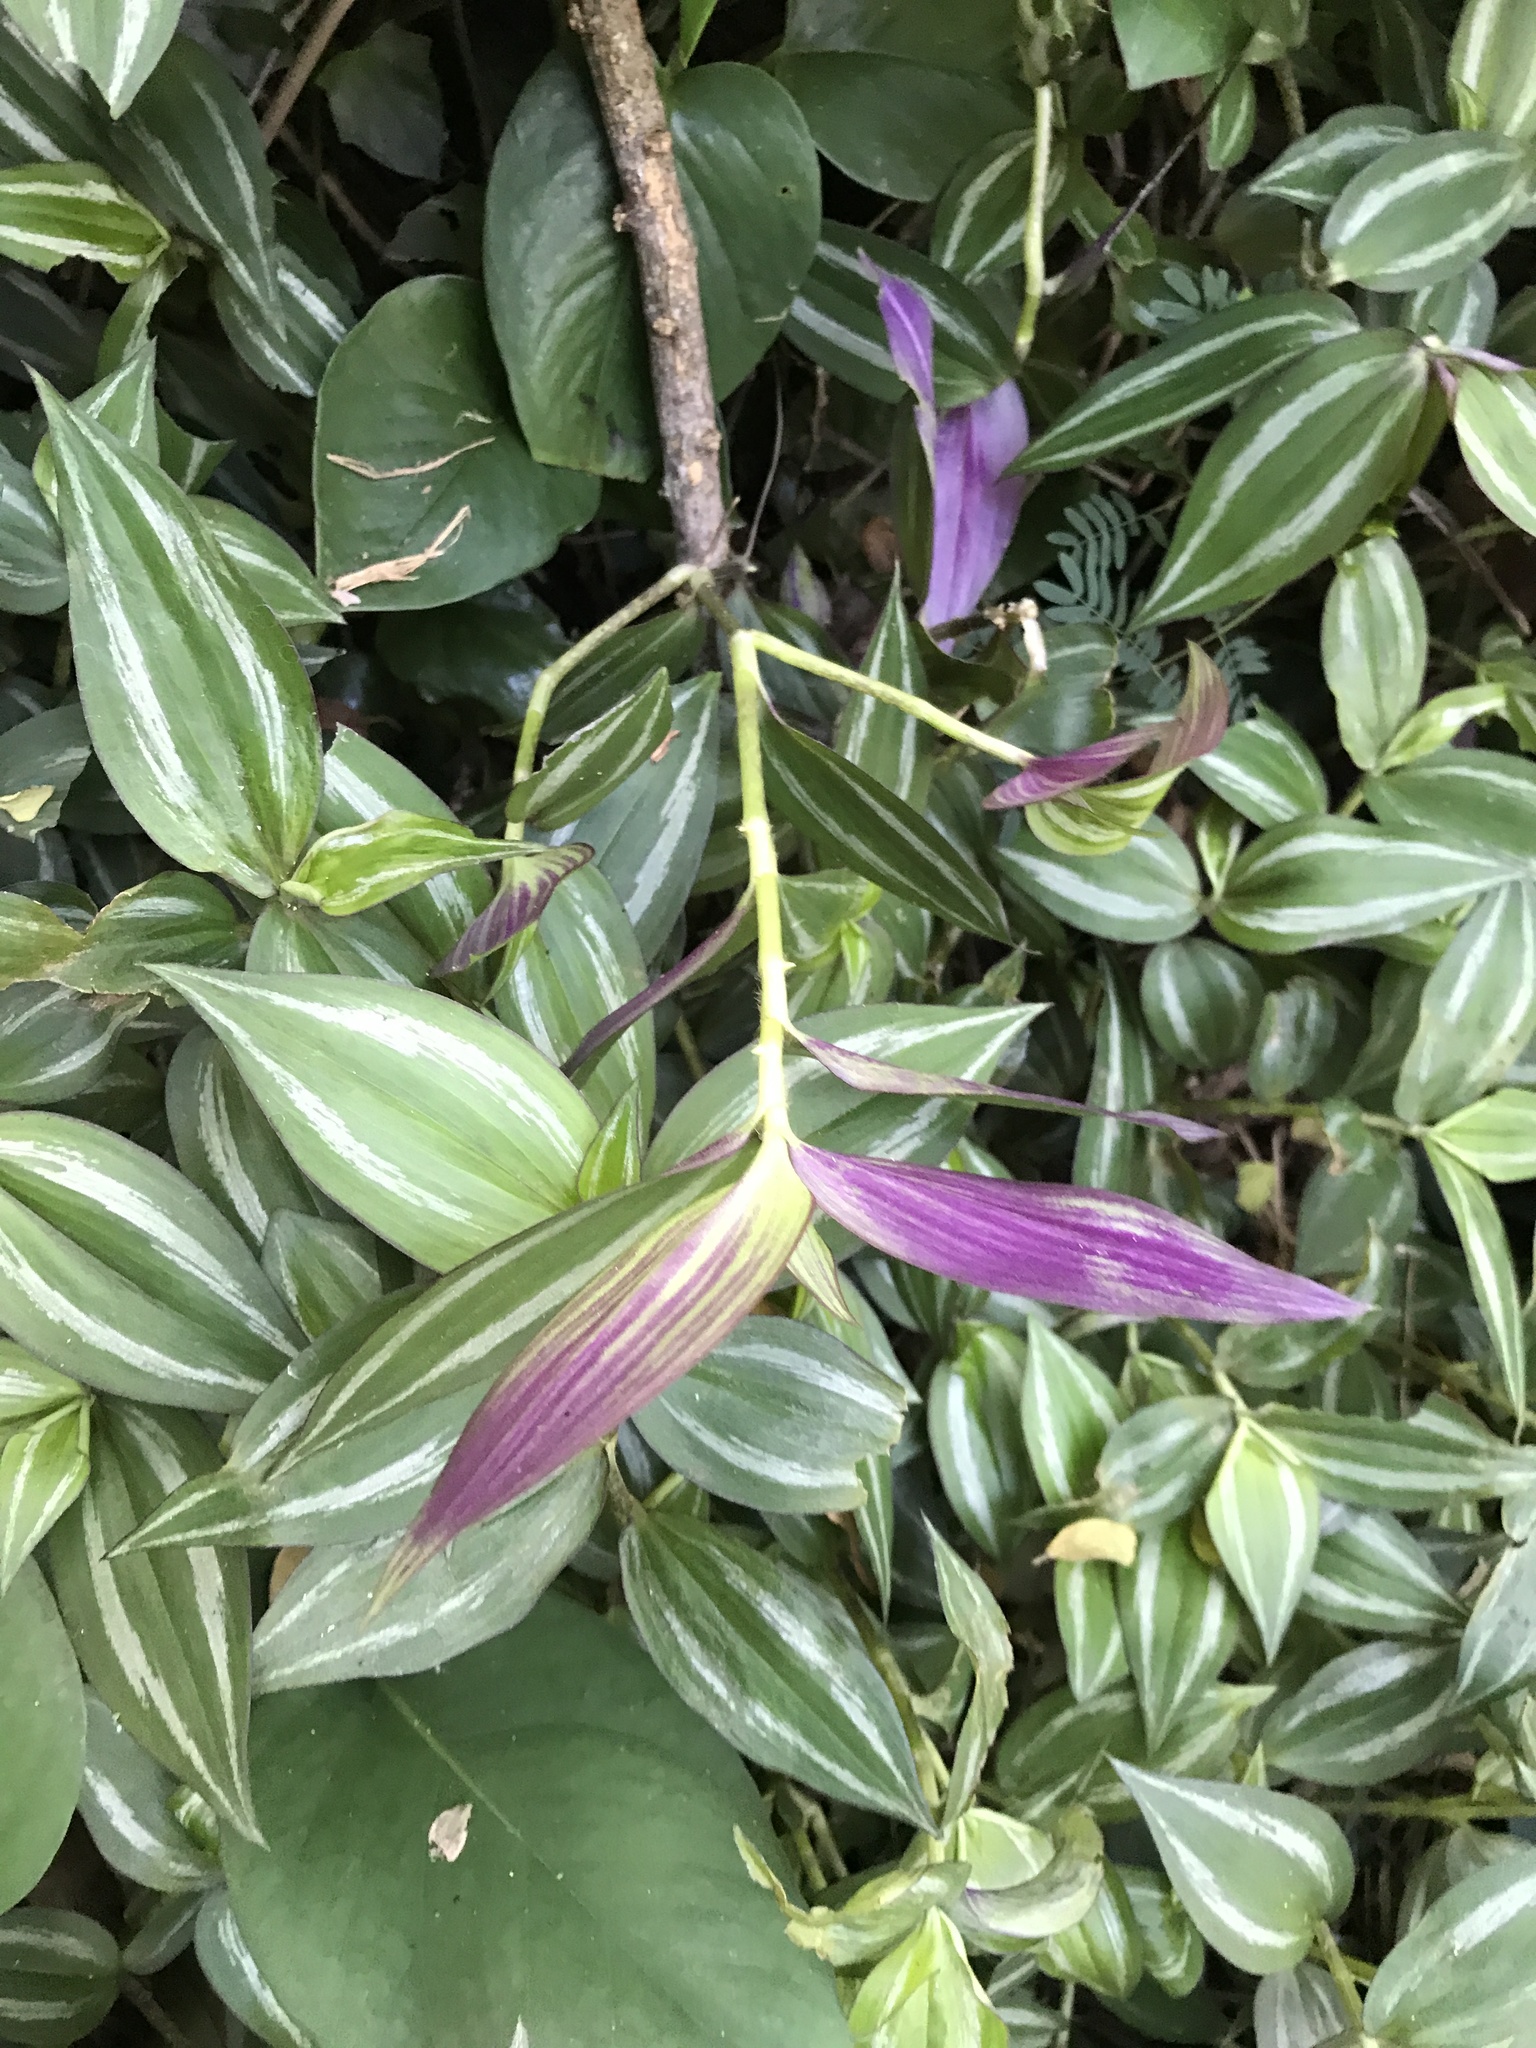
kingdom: Plantae
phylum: Tracheophyta
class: Liliopsida
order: Commelinales
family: Commelinaceae
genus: Tradescantia
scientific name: Tradescantia zebrina
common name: Inchplant
